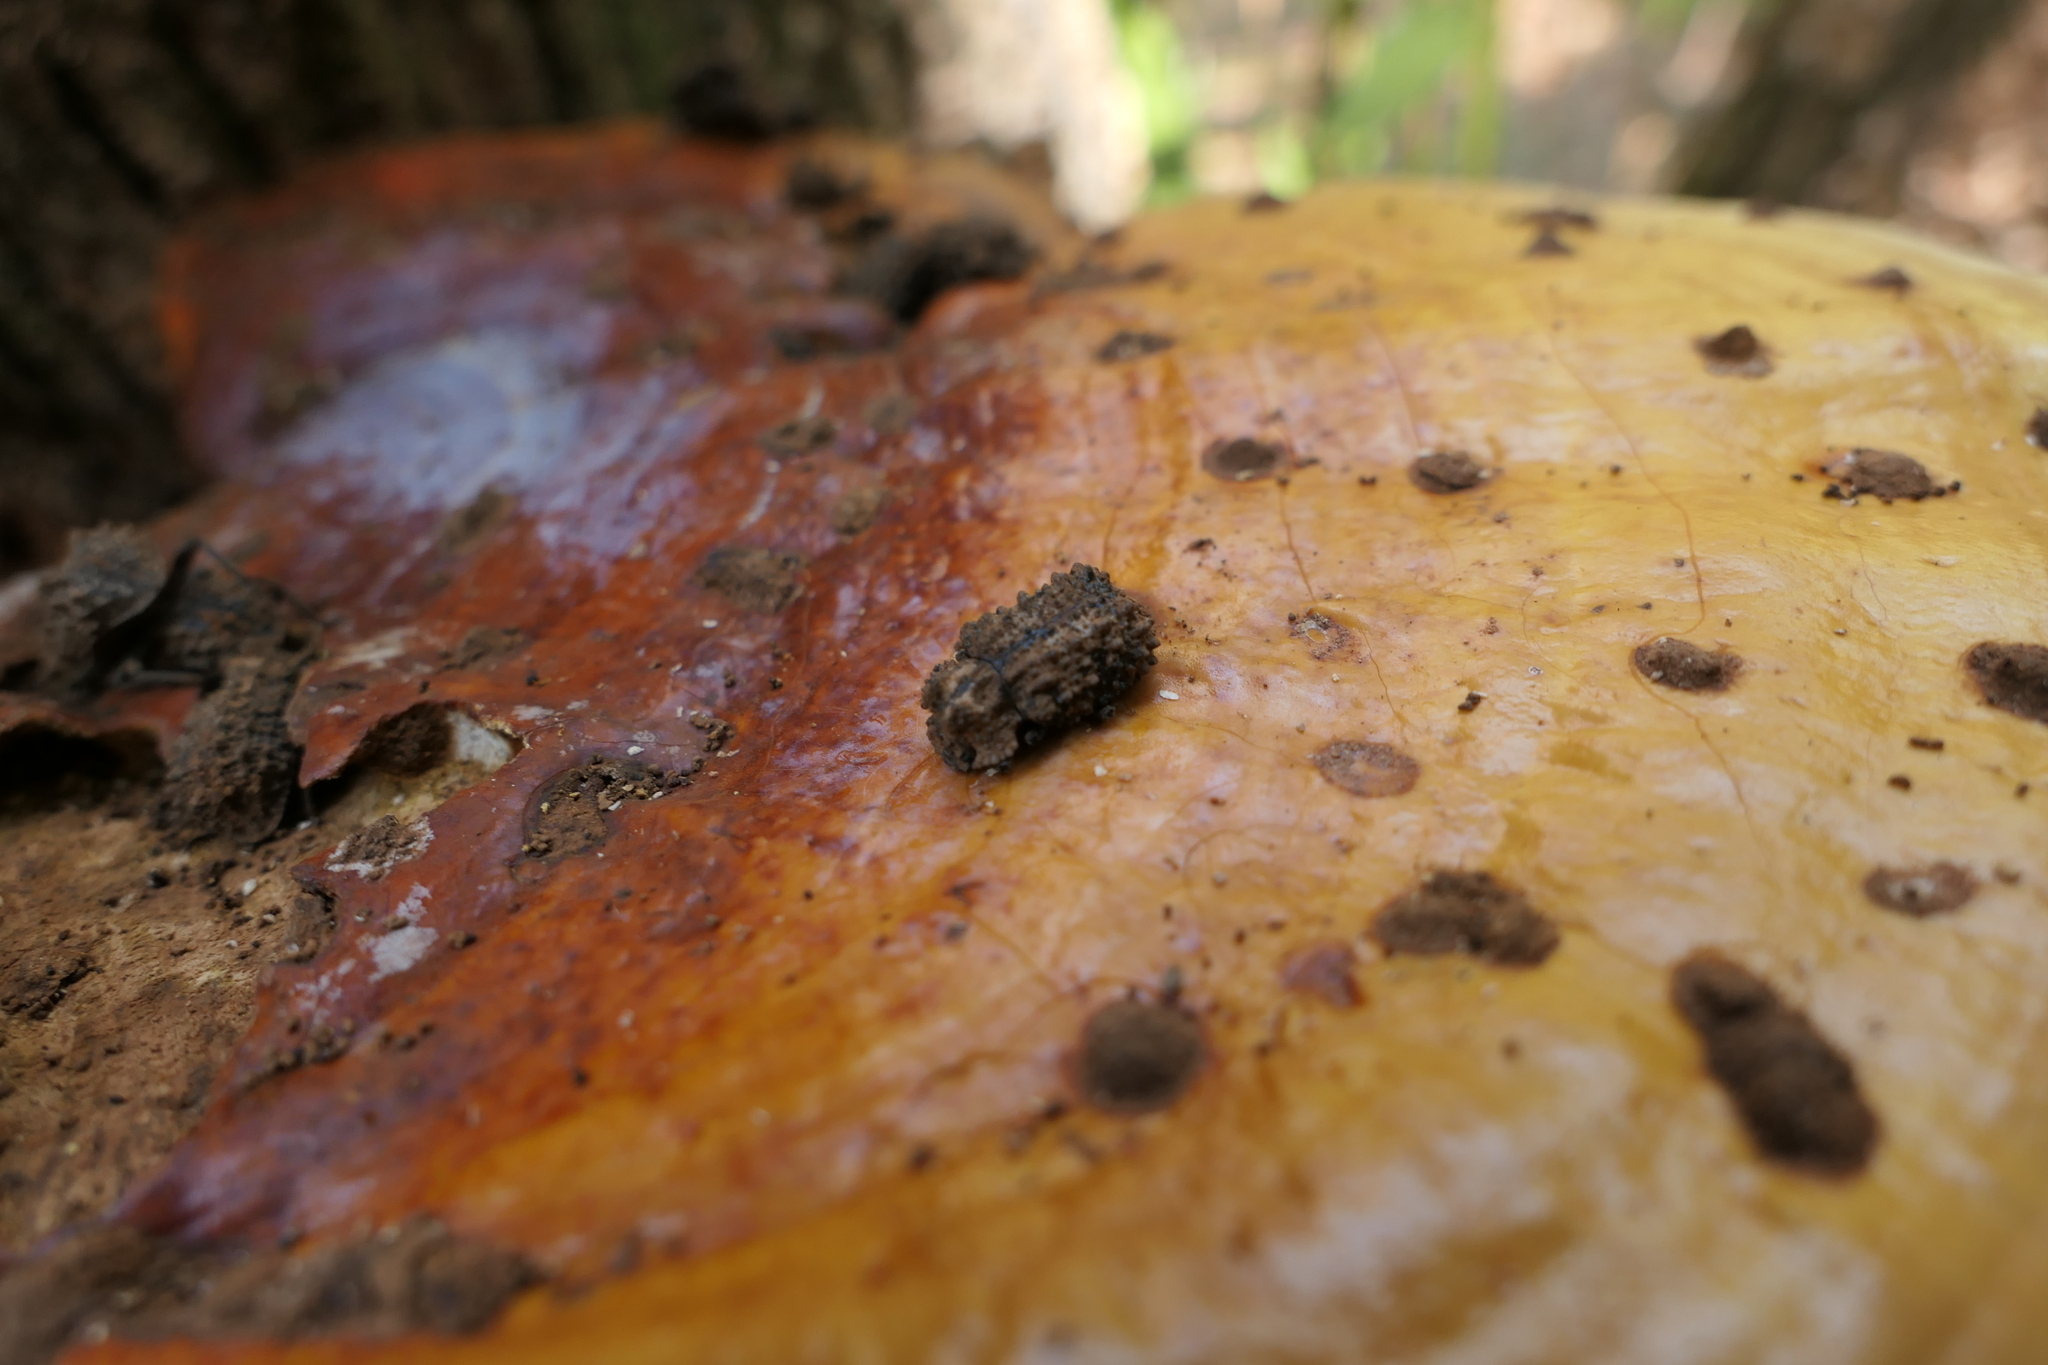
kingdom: Animalia
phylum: Arthropoda
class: Insecta
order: Coleoptera
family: Tenebrionidae
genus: Gnatocerus
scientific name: Gnatocerus cornutus
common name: Broad-horned flour beetle
